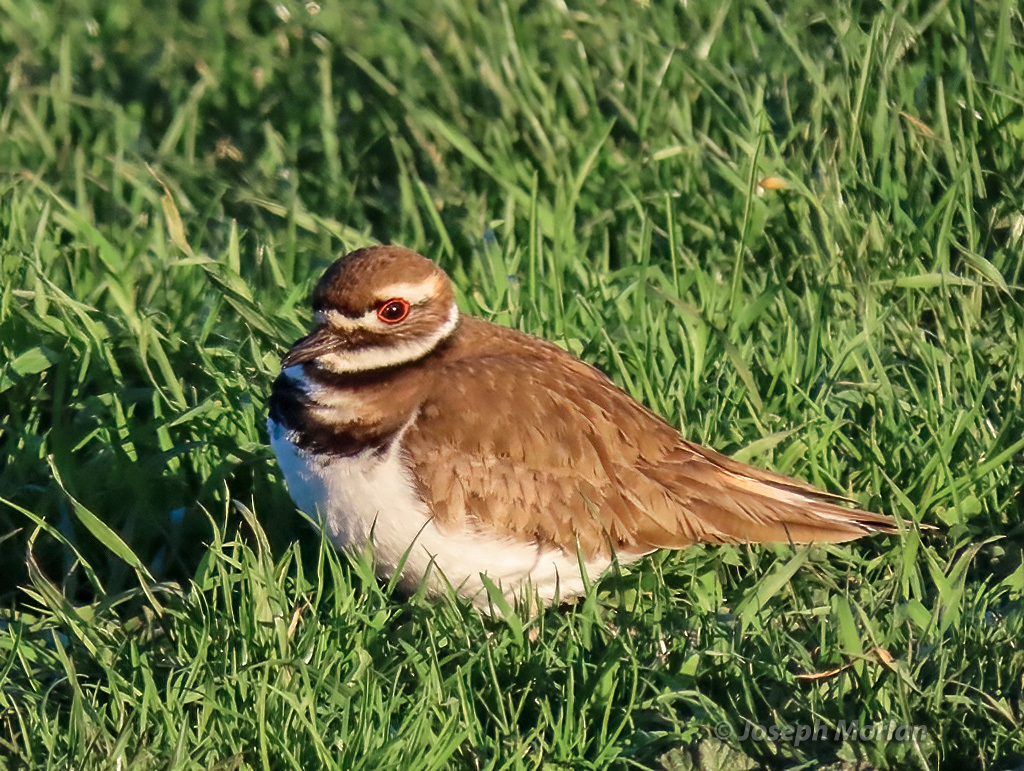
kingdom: Animalia
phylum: Chordata
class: Aves
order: Charadriiformes
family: Charadriidae
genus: Charadrius
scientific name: Charadrius vociferus
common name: Killdeer
